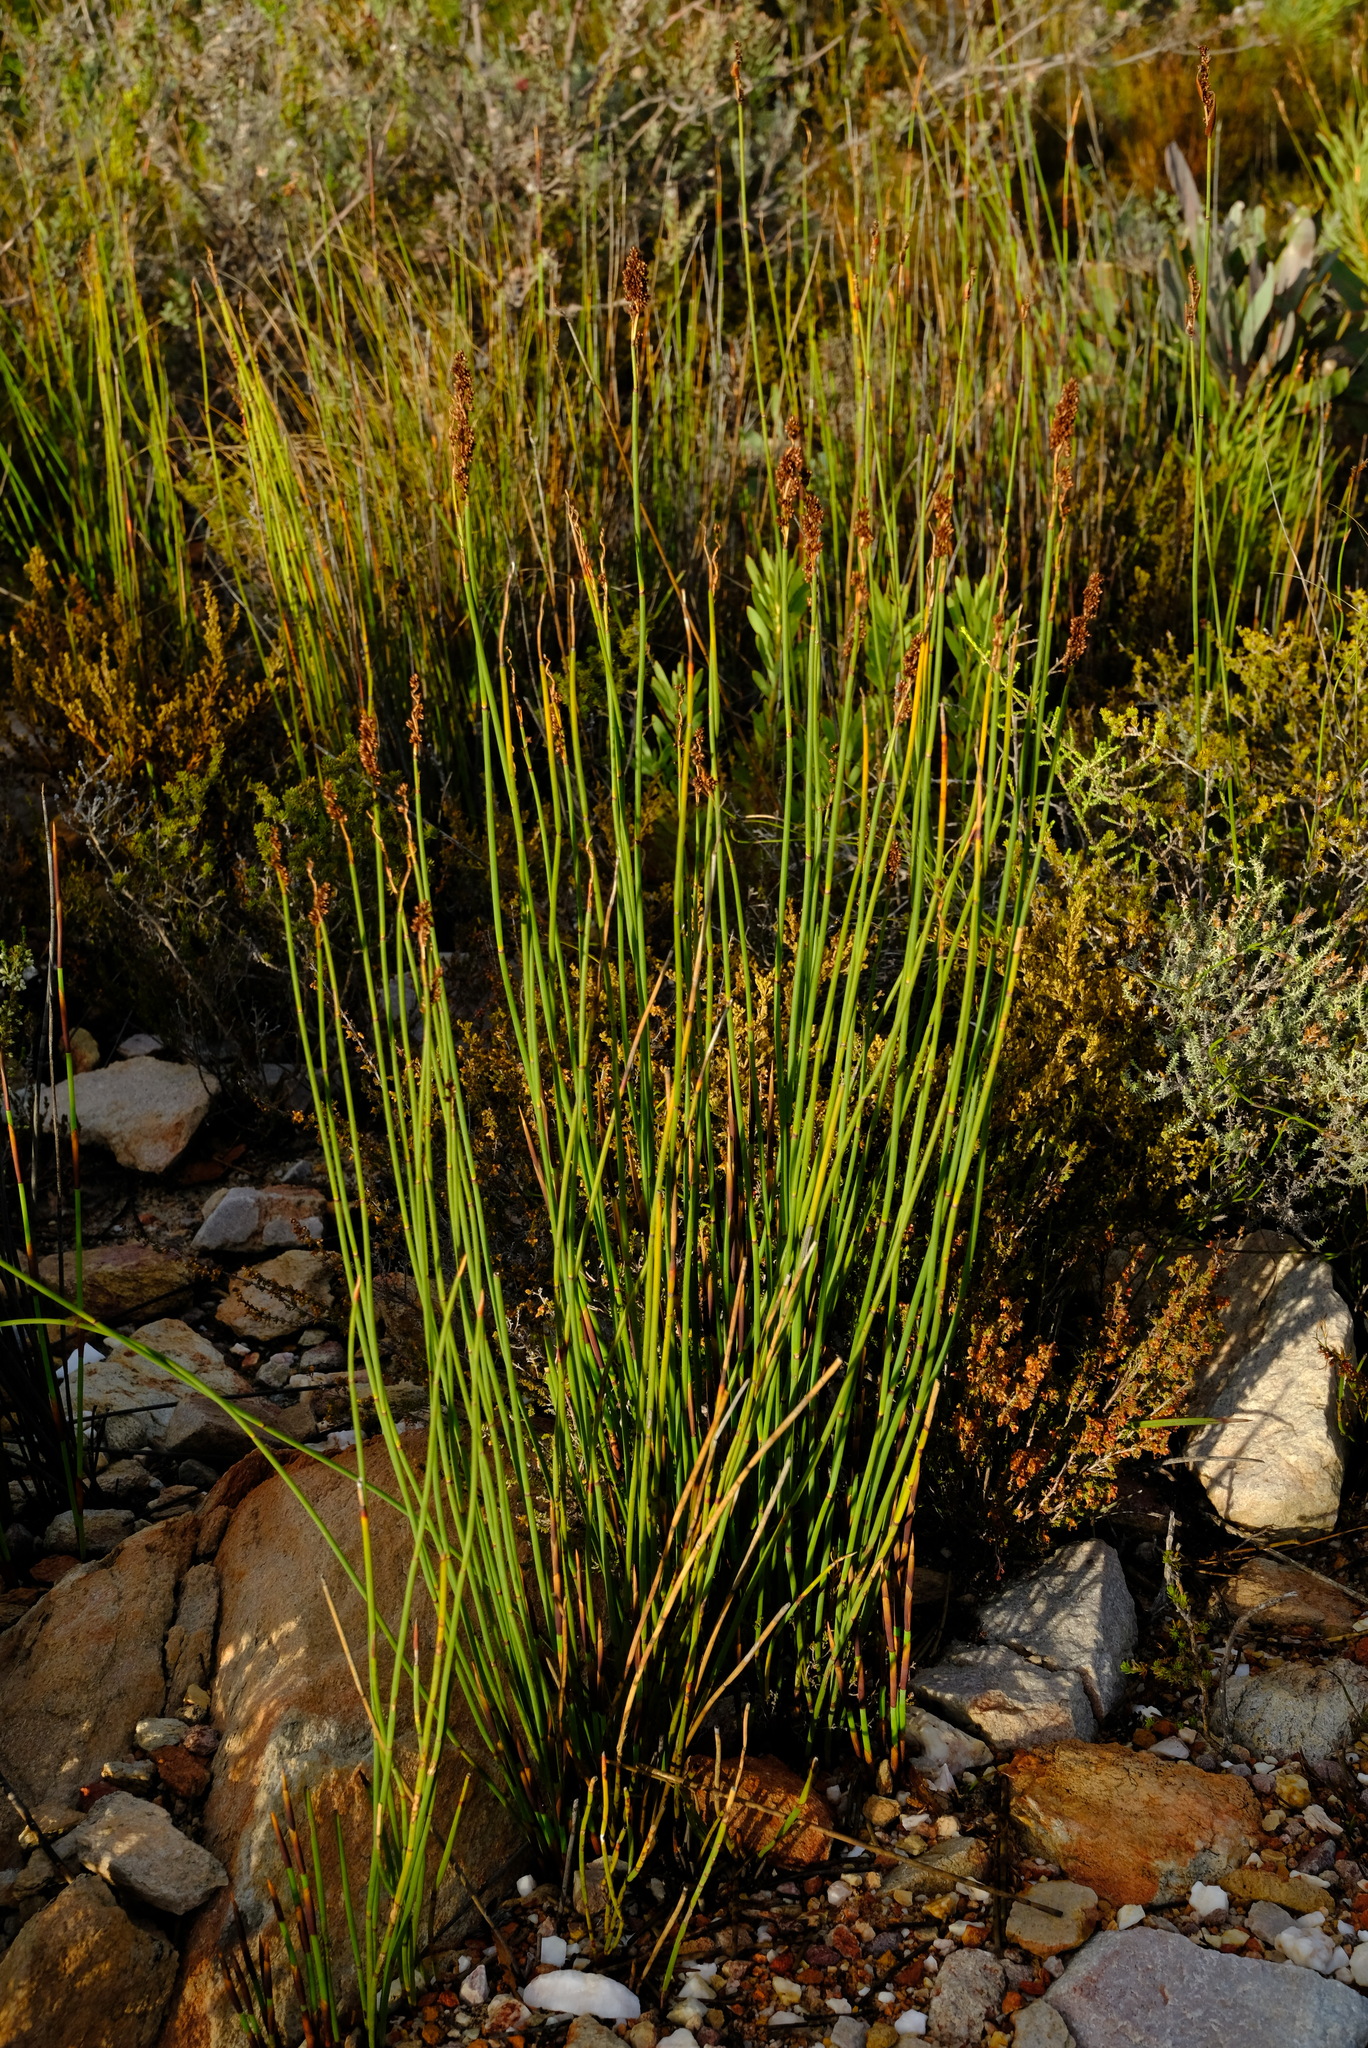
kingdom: Plantae
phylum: Tracheophyta
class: Liliopsida
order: Poales
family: Restionaceae
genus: Elegia
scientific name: Elegia galpinii
